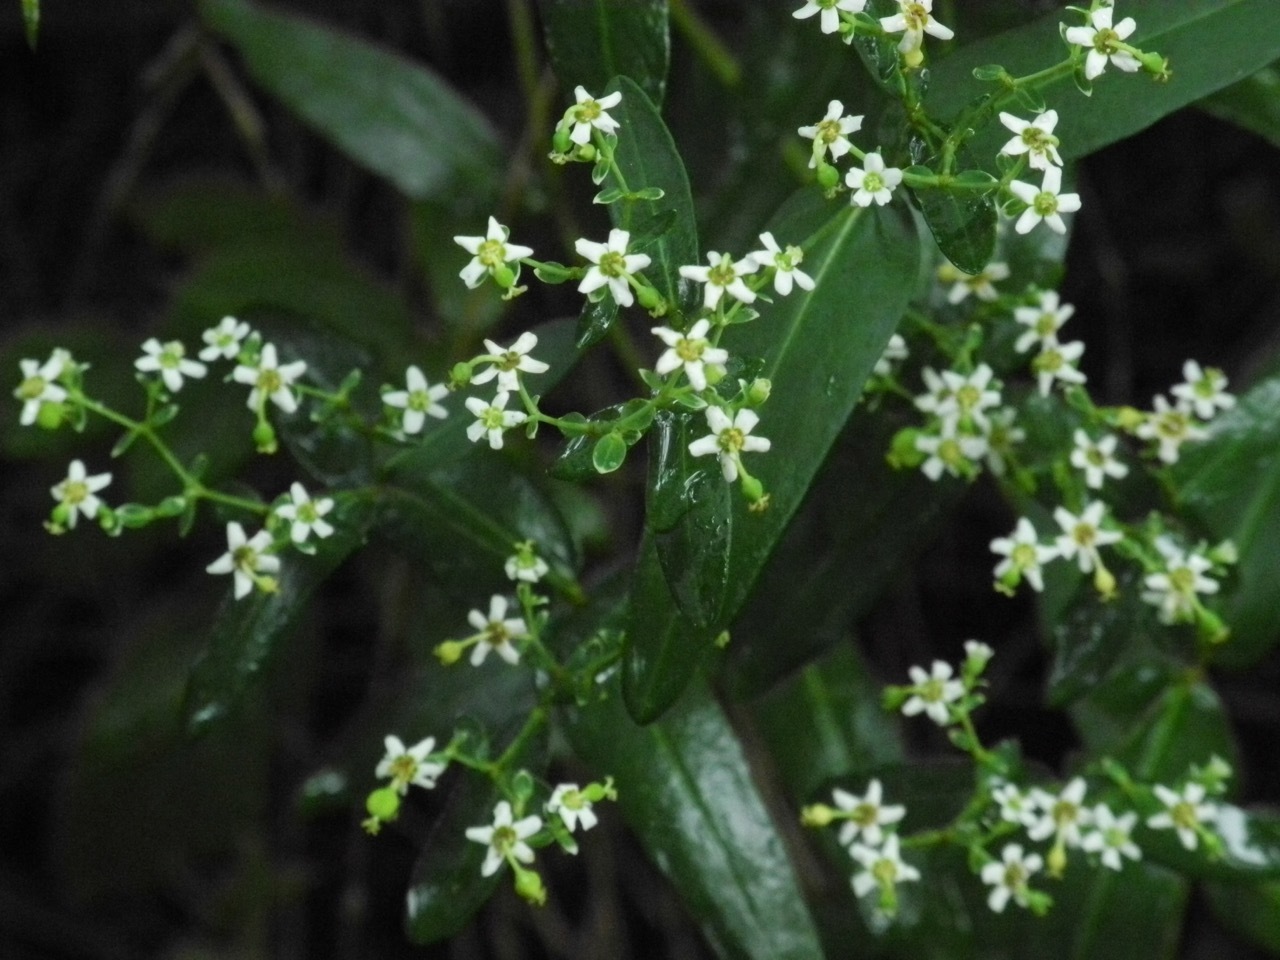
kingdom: Plantae
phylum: Tracheophyta
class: Magnoliopsida
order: Malpighiales
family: Euphorbiaceae
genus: Euphorbia
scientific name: Euphorbia corollata
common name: Flowering spurge
